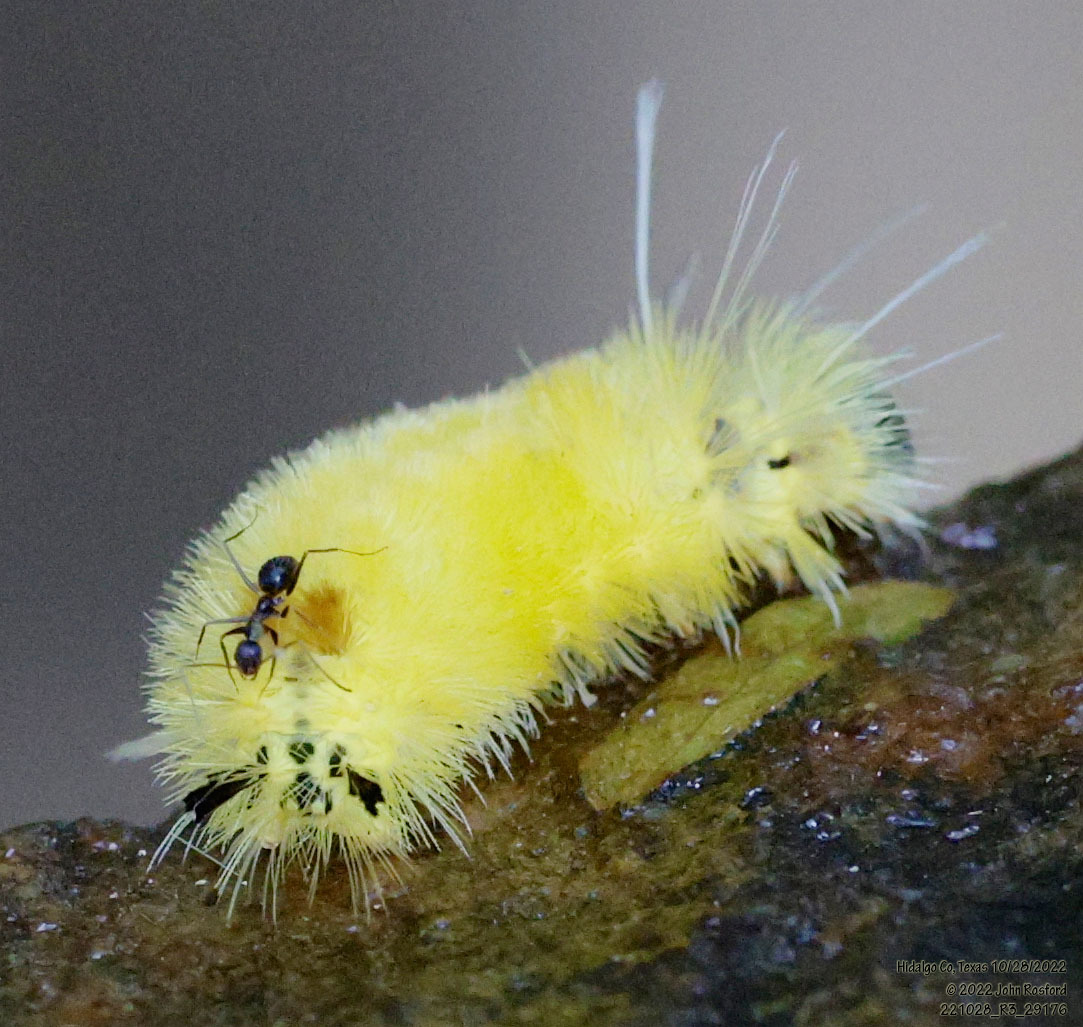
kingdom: Animalia
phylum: Arthropoda
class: Insecta
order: Lepidoptera
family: Erebidae
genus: Lophocampa
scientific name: Lophocampa annulosa
